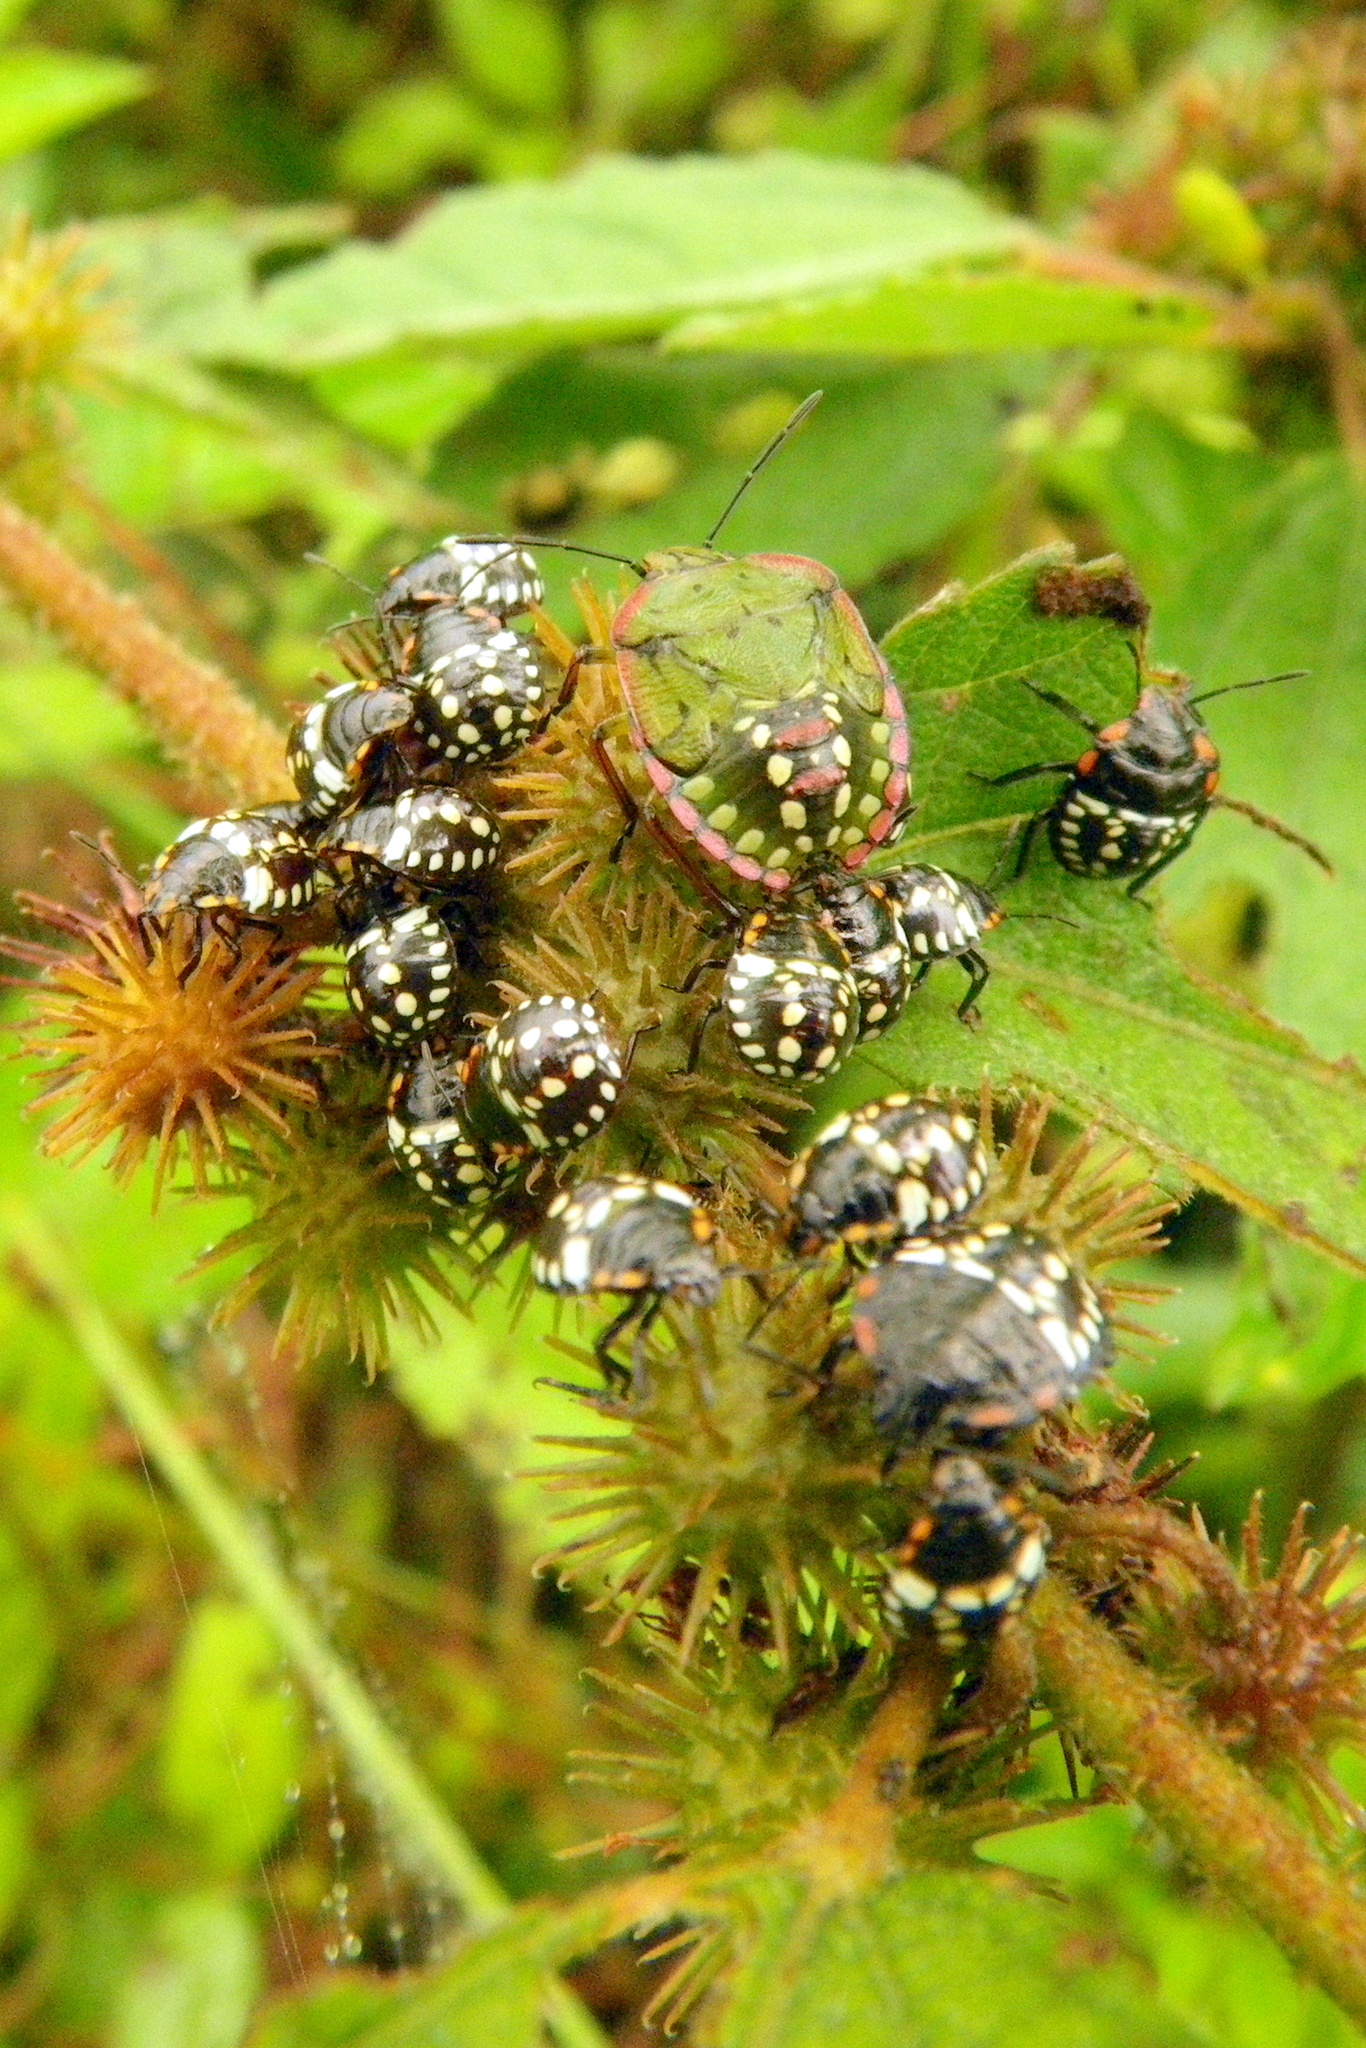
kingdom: Animalia
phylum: Arthropoda
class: Insecta
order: Hemiptera
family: Pentatomidae
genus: Nezara
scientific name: Nezara viridula
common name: Southern green stink bug
